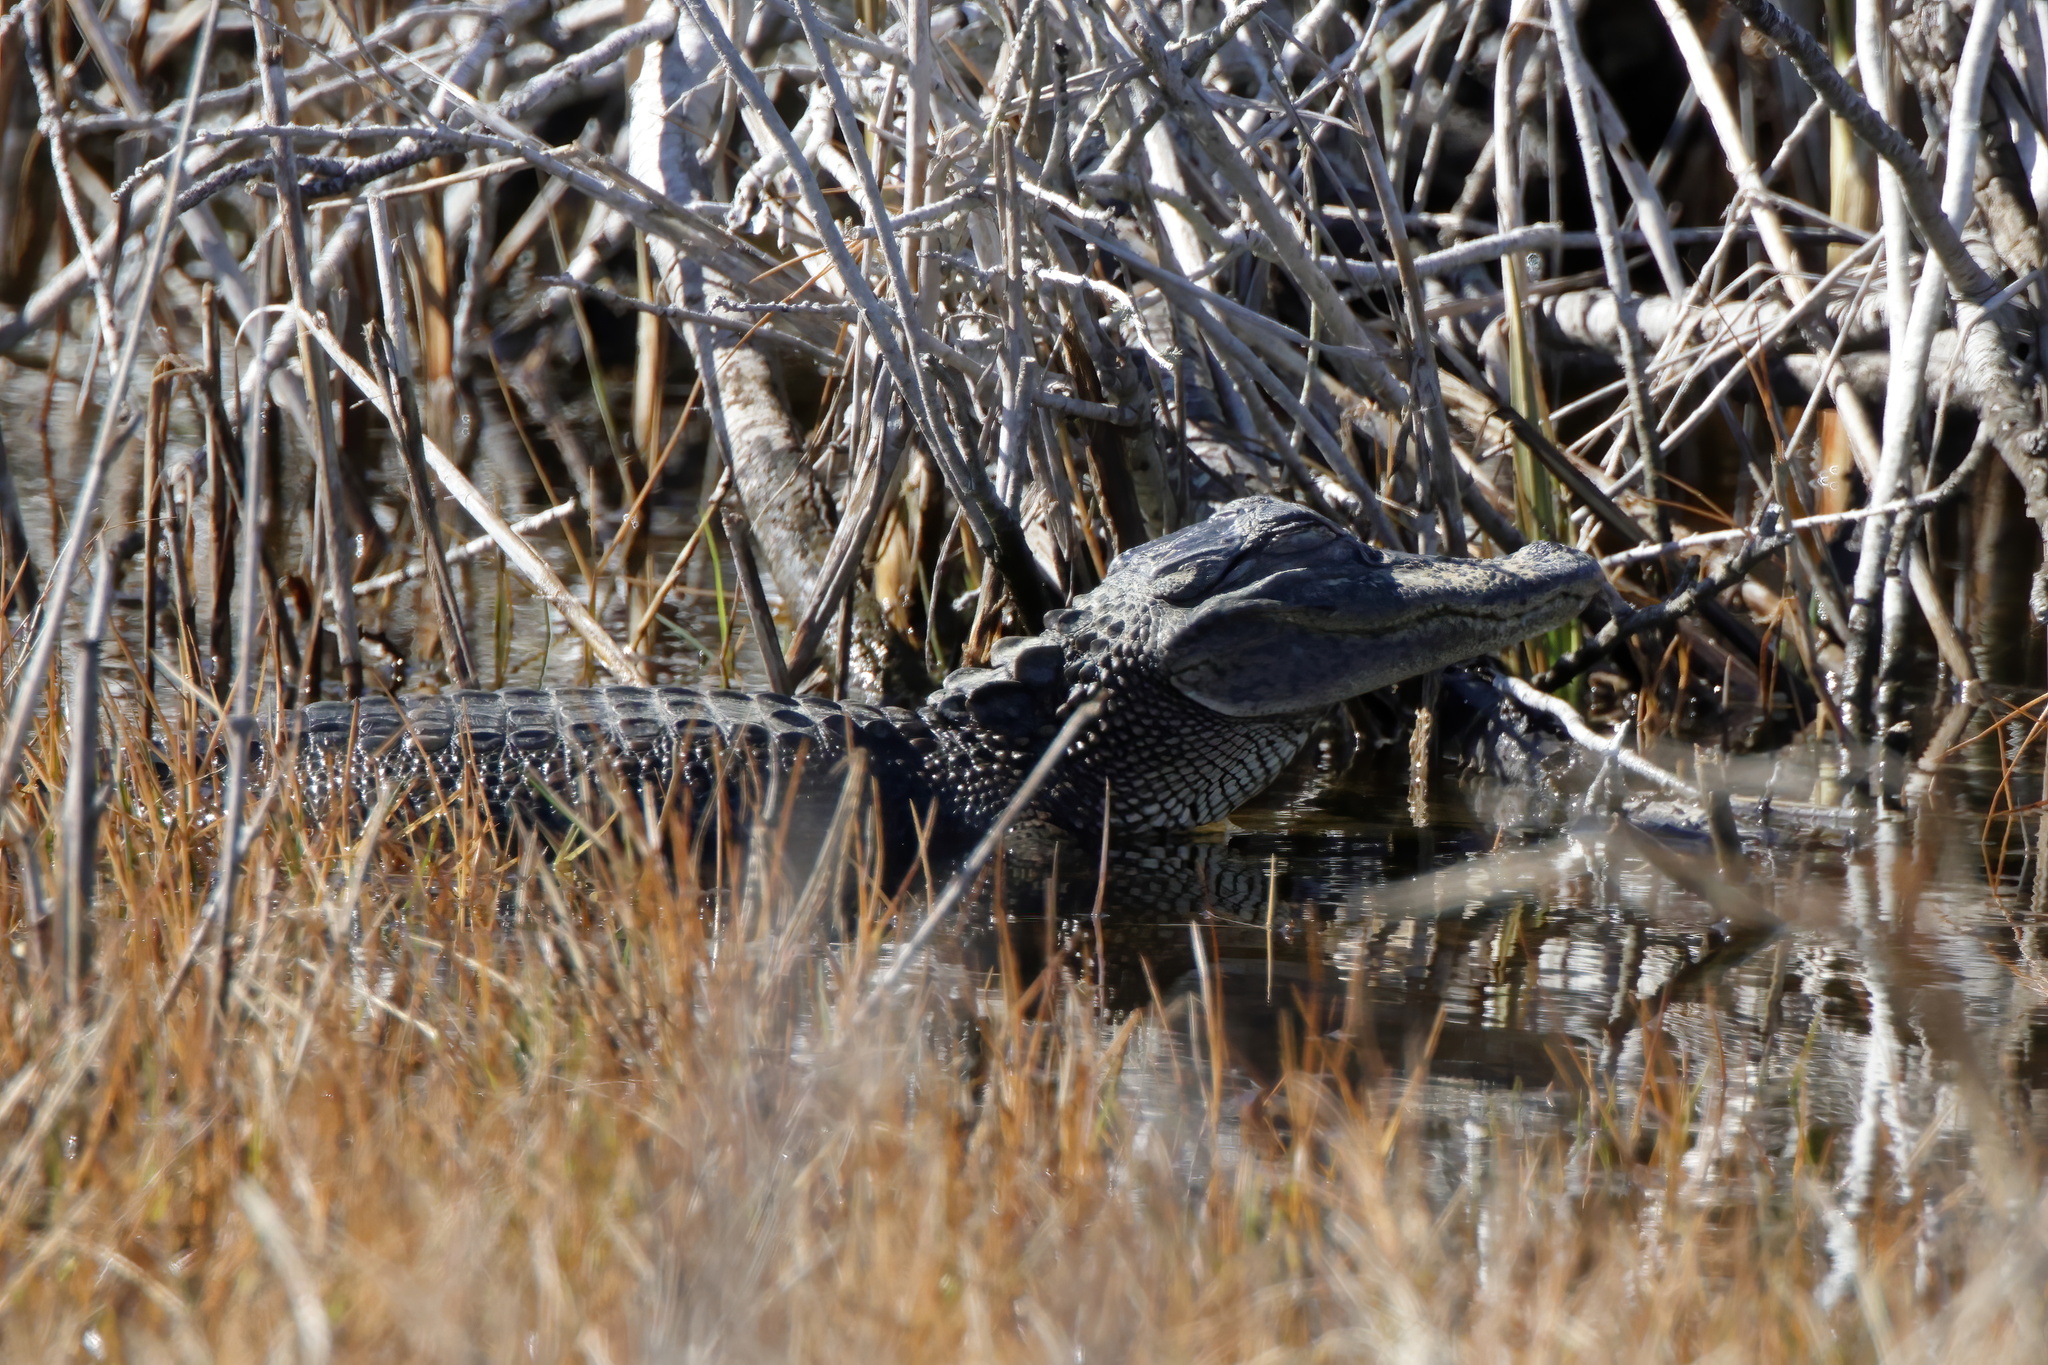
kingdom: Animalia
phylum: Chordata
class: Crocodylia
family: Alligatoridae
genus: Alligator
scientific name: Alligator mississippiensis
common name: American alligator
